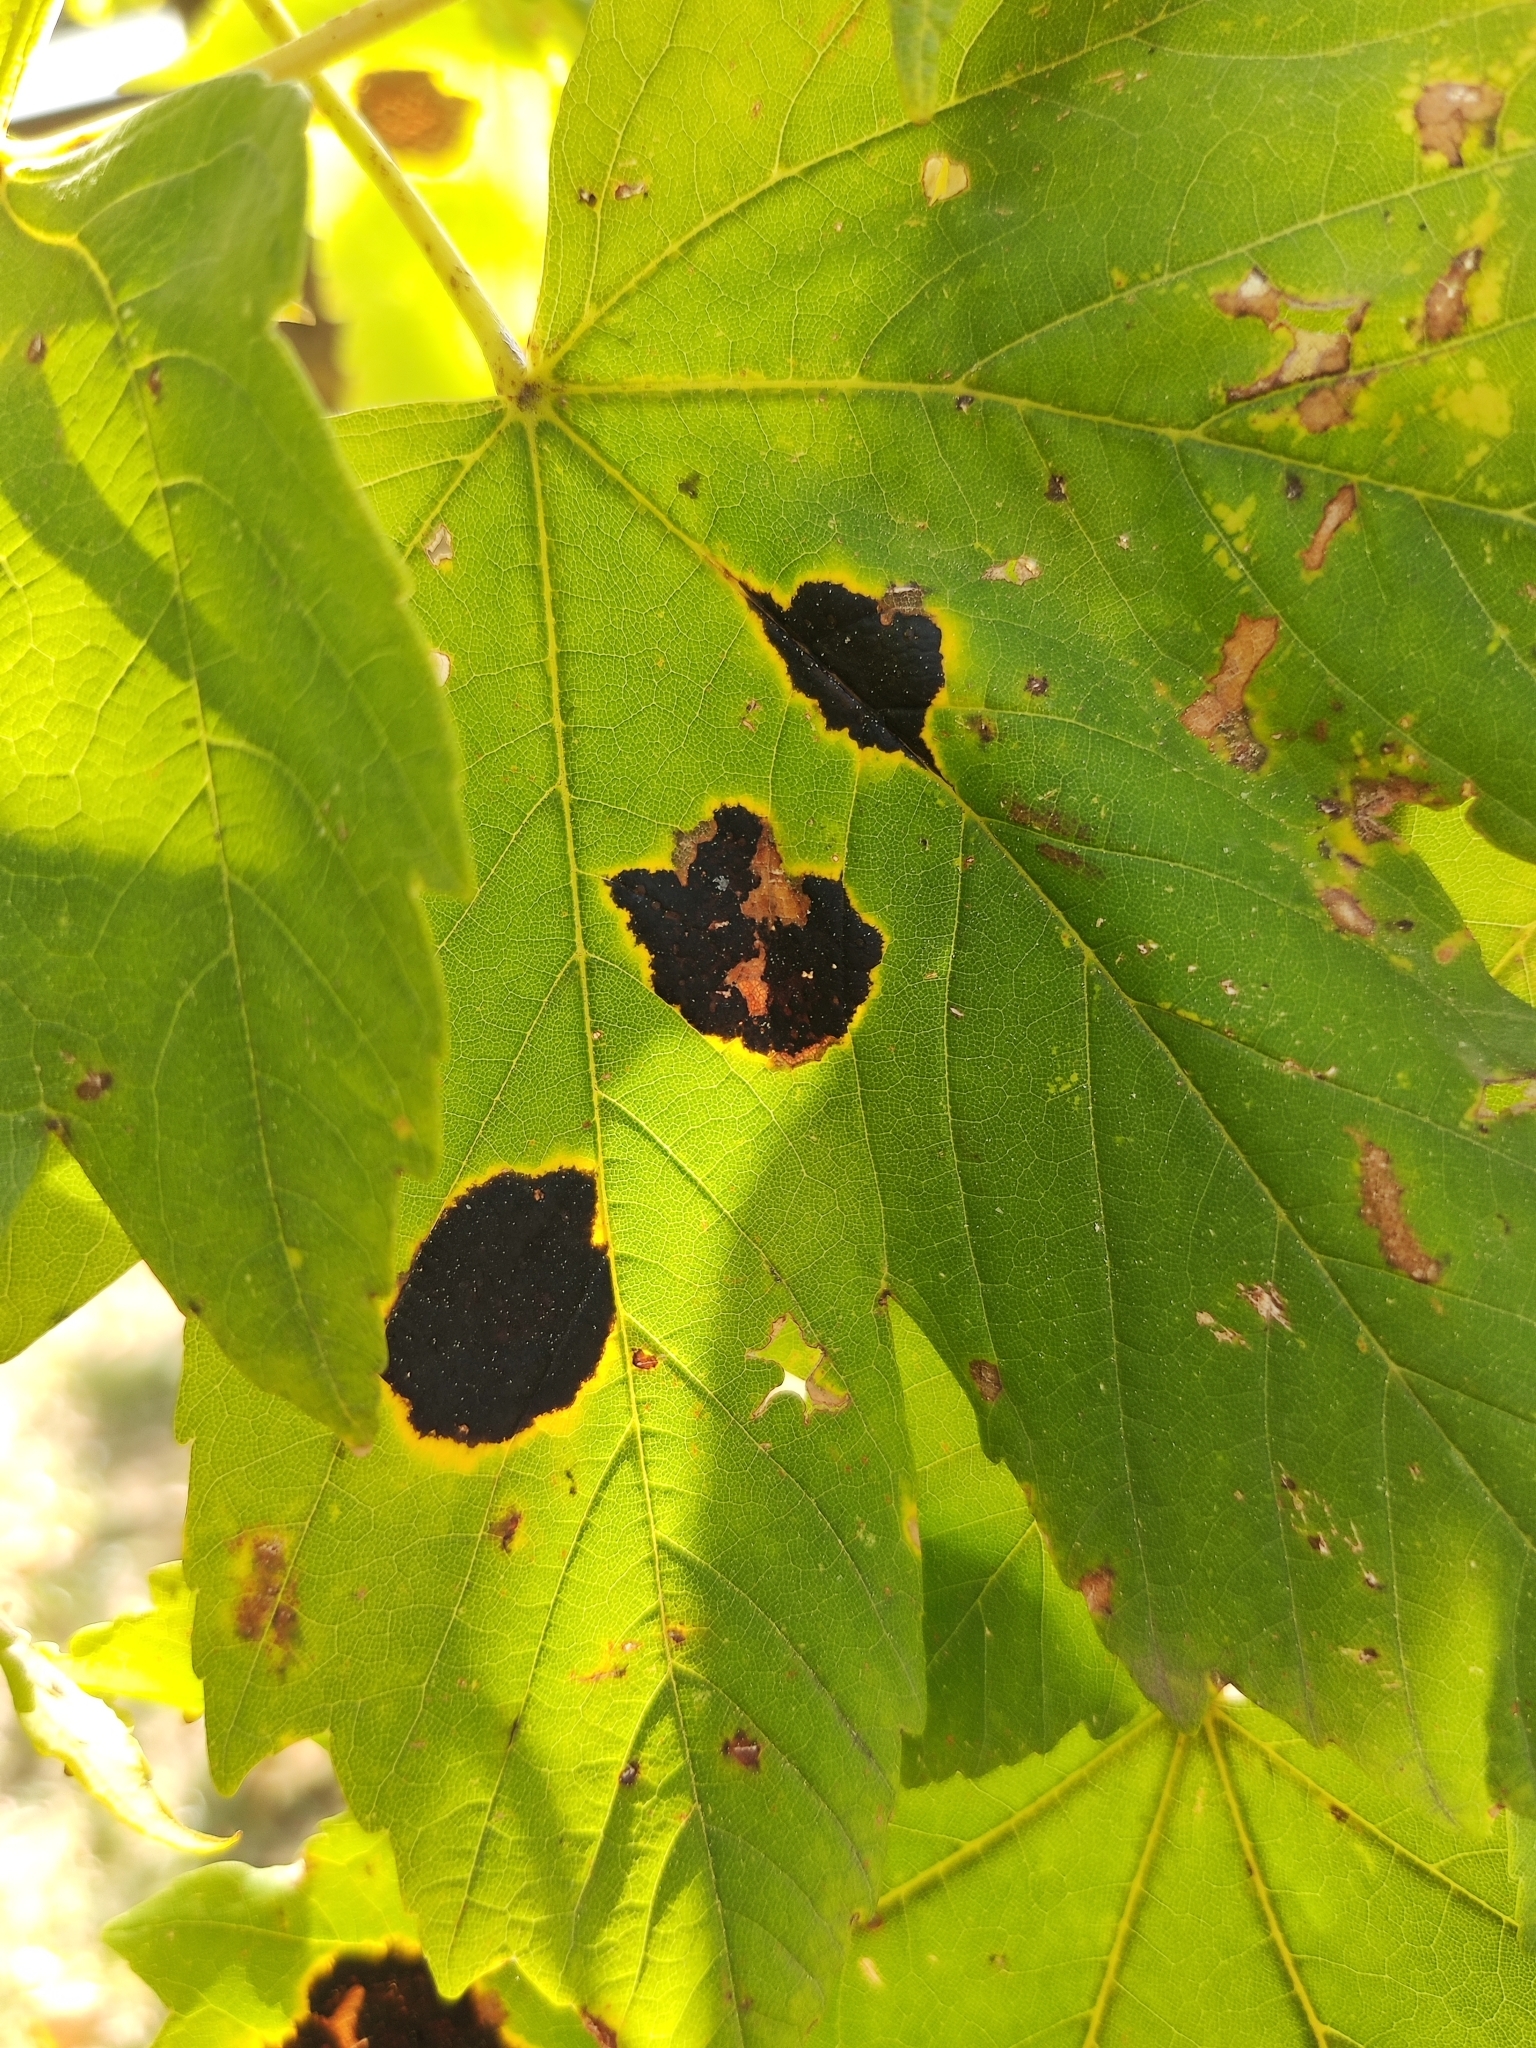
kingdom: Fungi
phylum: Ascomycota
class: Leotiomycetes
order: Rhytismatales
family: Rhytismataceae
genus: Rhytisma
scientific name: Rhytisma acerinum
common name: European tar spot
